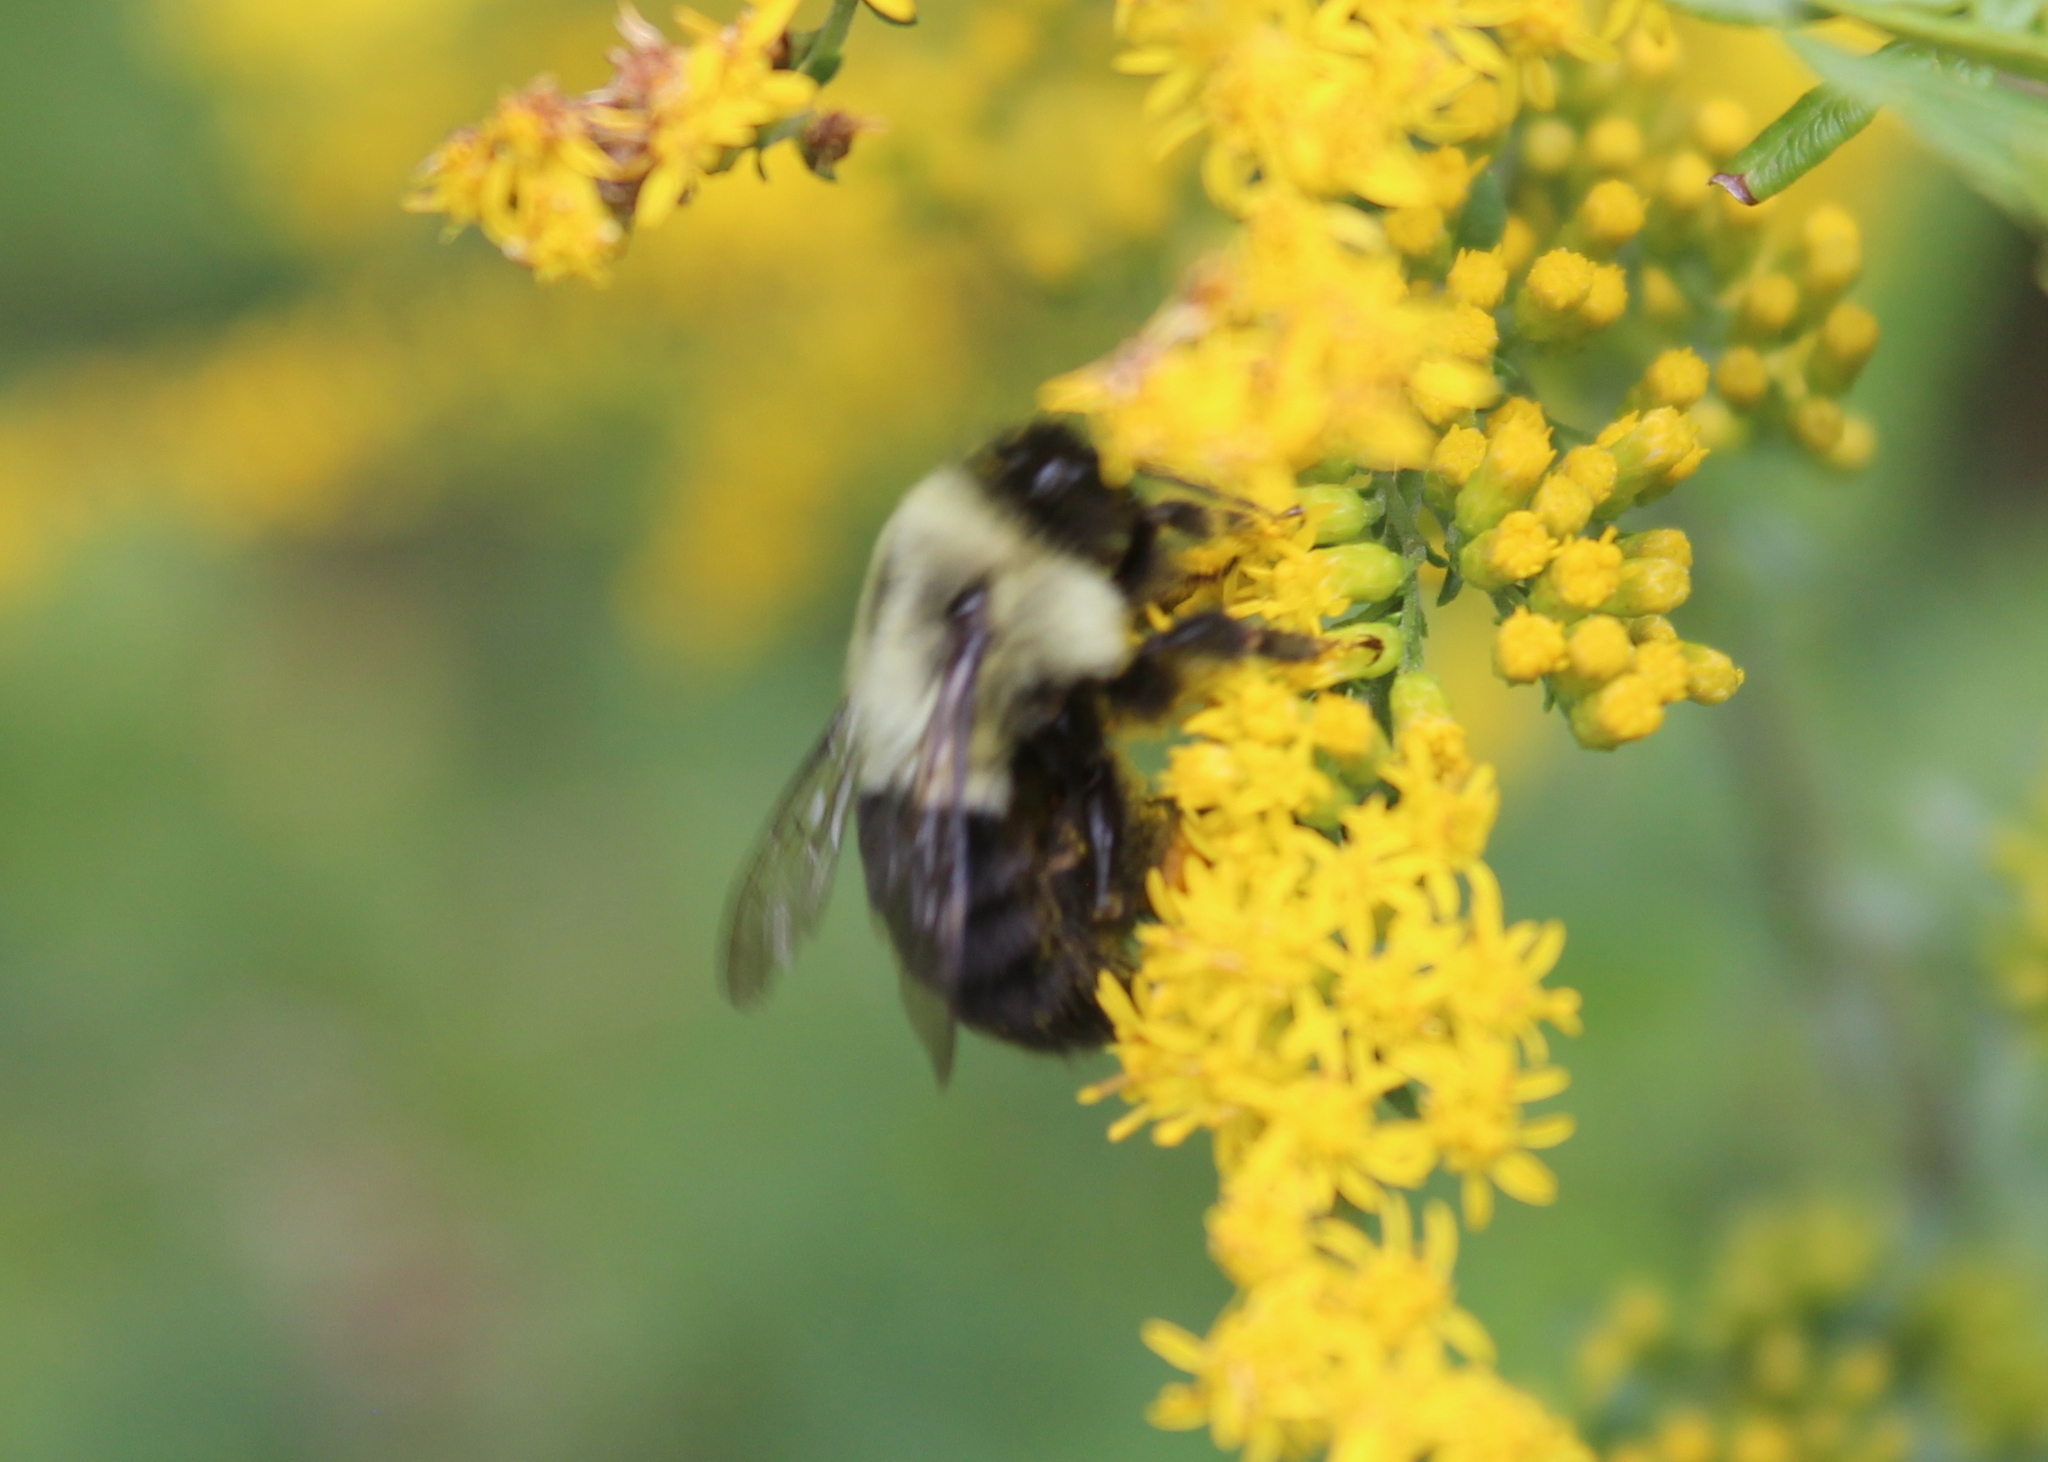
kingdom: Animalia
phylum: Arthropoda
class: Insecta
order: Hymenoptera
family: Apidae
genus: Bombus
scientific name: Bombus impatiens
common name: Common eastern bumble bee
